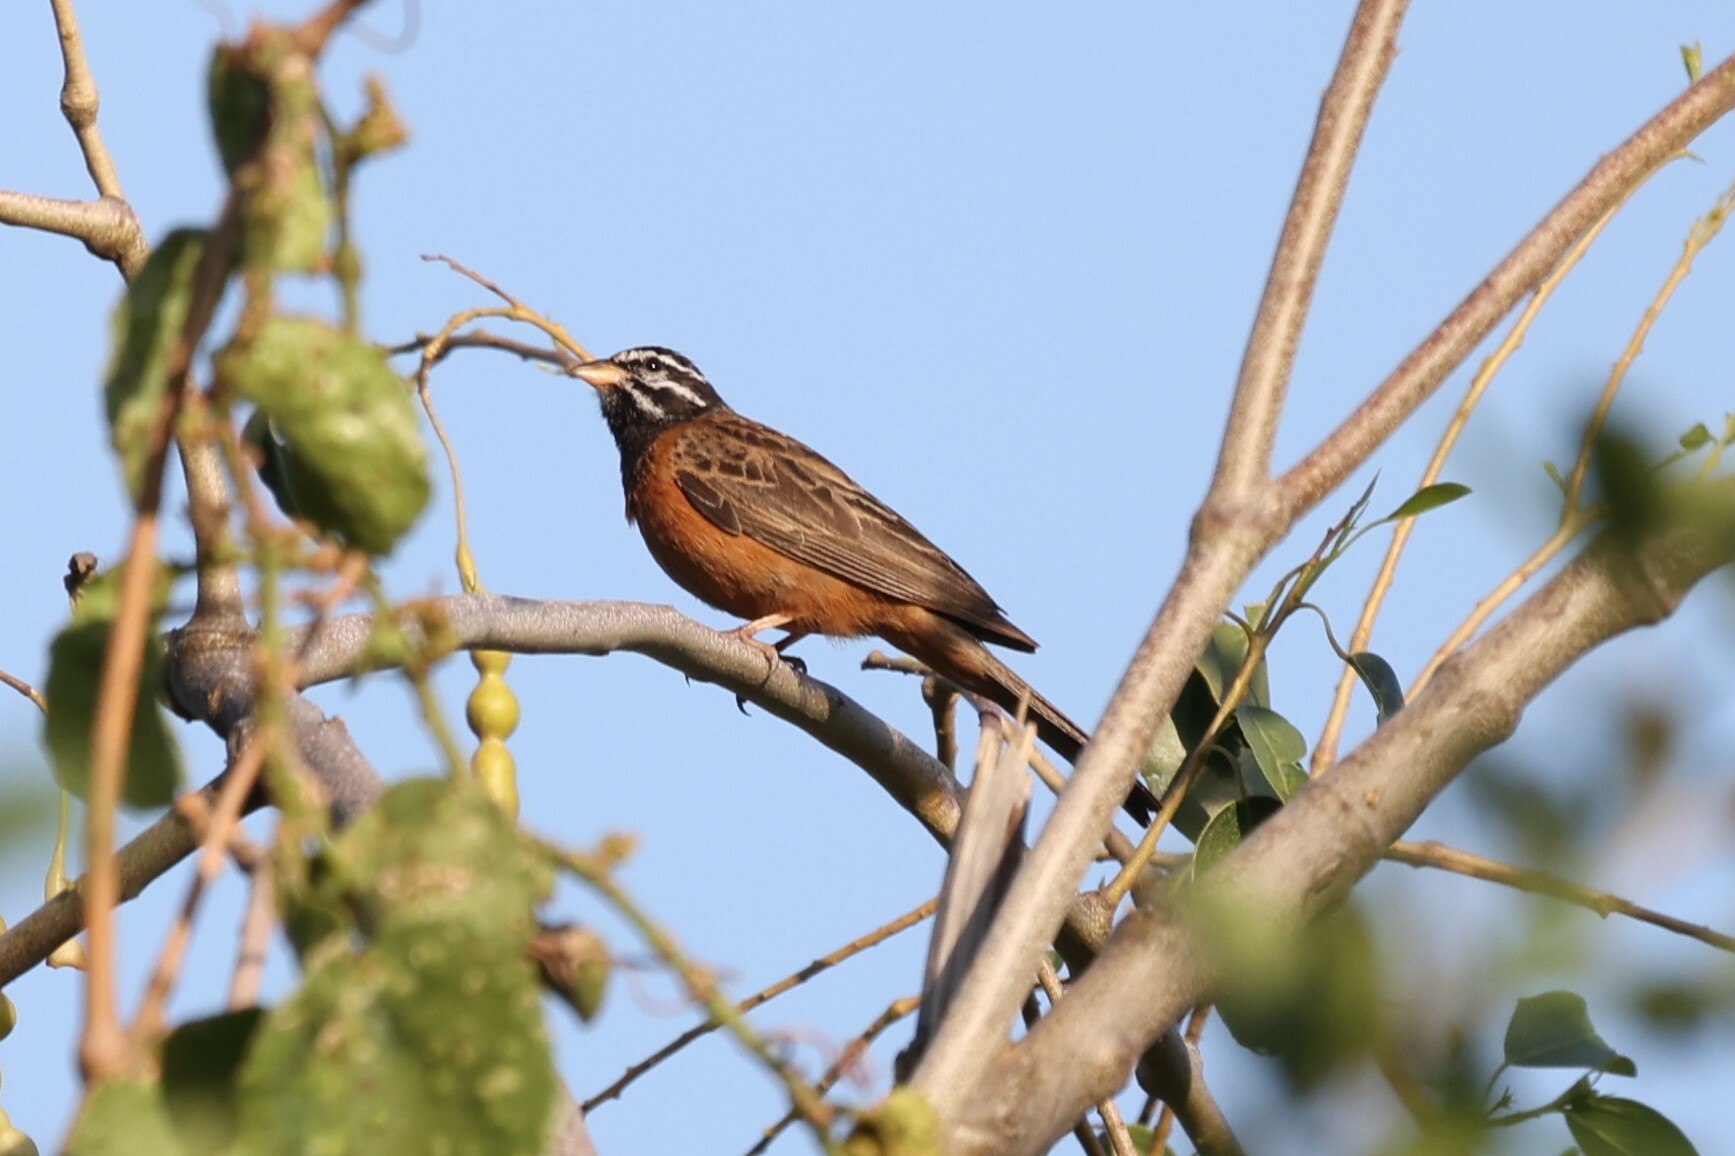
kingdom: Animalia
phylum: Chordata
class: Aves
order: Passeriformes
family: Emberizidae
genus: Emberiza
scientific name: Emberiza tahapisi
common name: Cinnamon-breasted bunting
